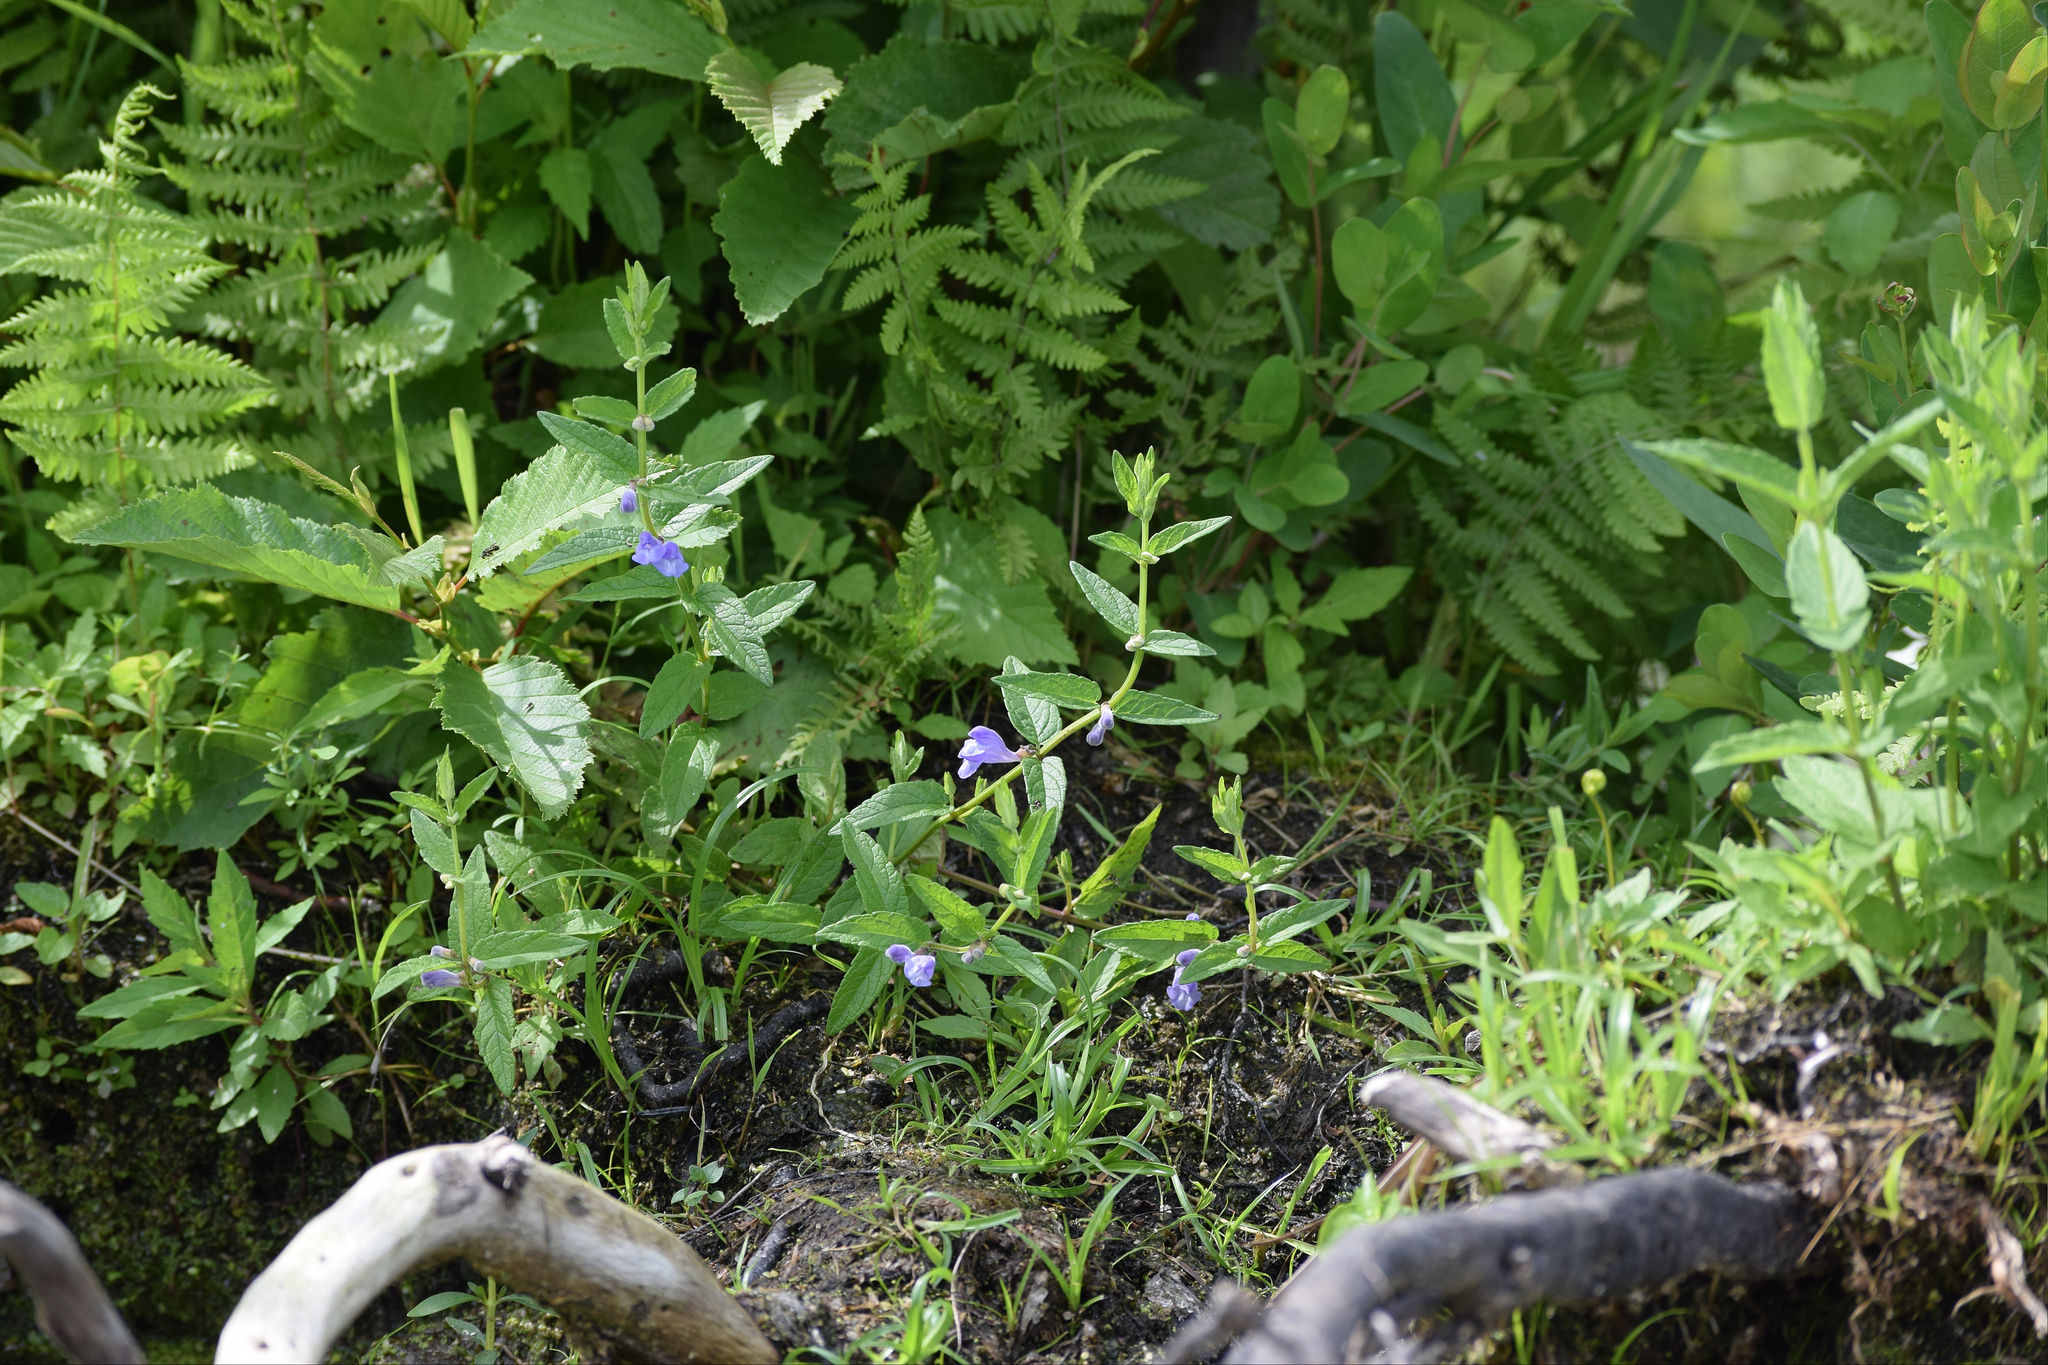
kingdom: Plantae
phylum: Tracheophyta
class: Magnoliopsida
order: Lamiales
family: Lamiaceae
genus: Scutellaria
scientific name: Scutellaria galericulata
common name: Skullcap
